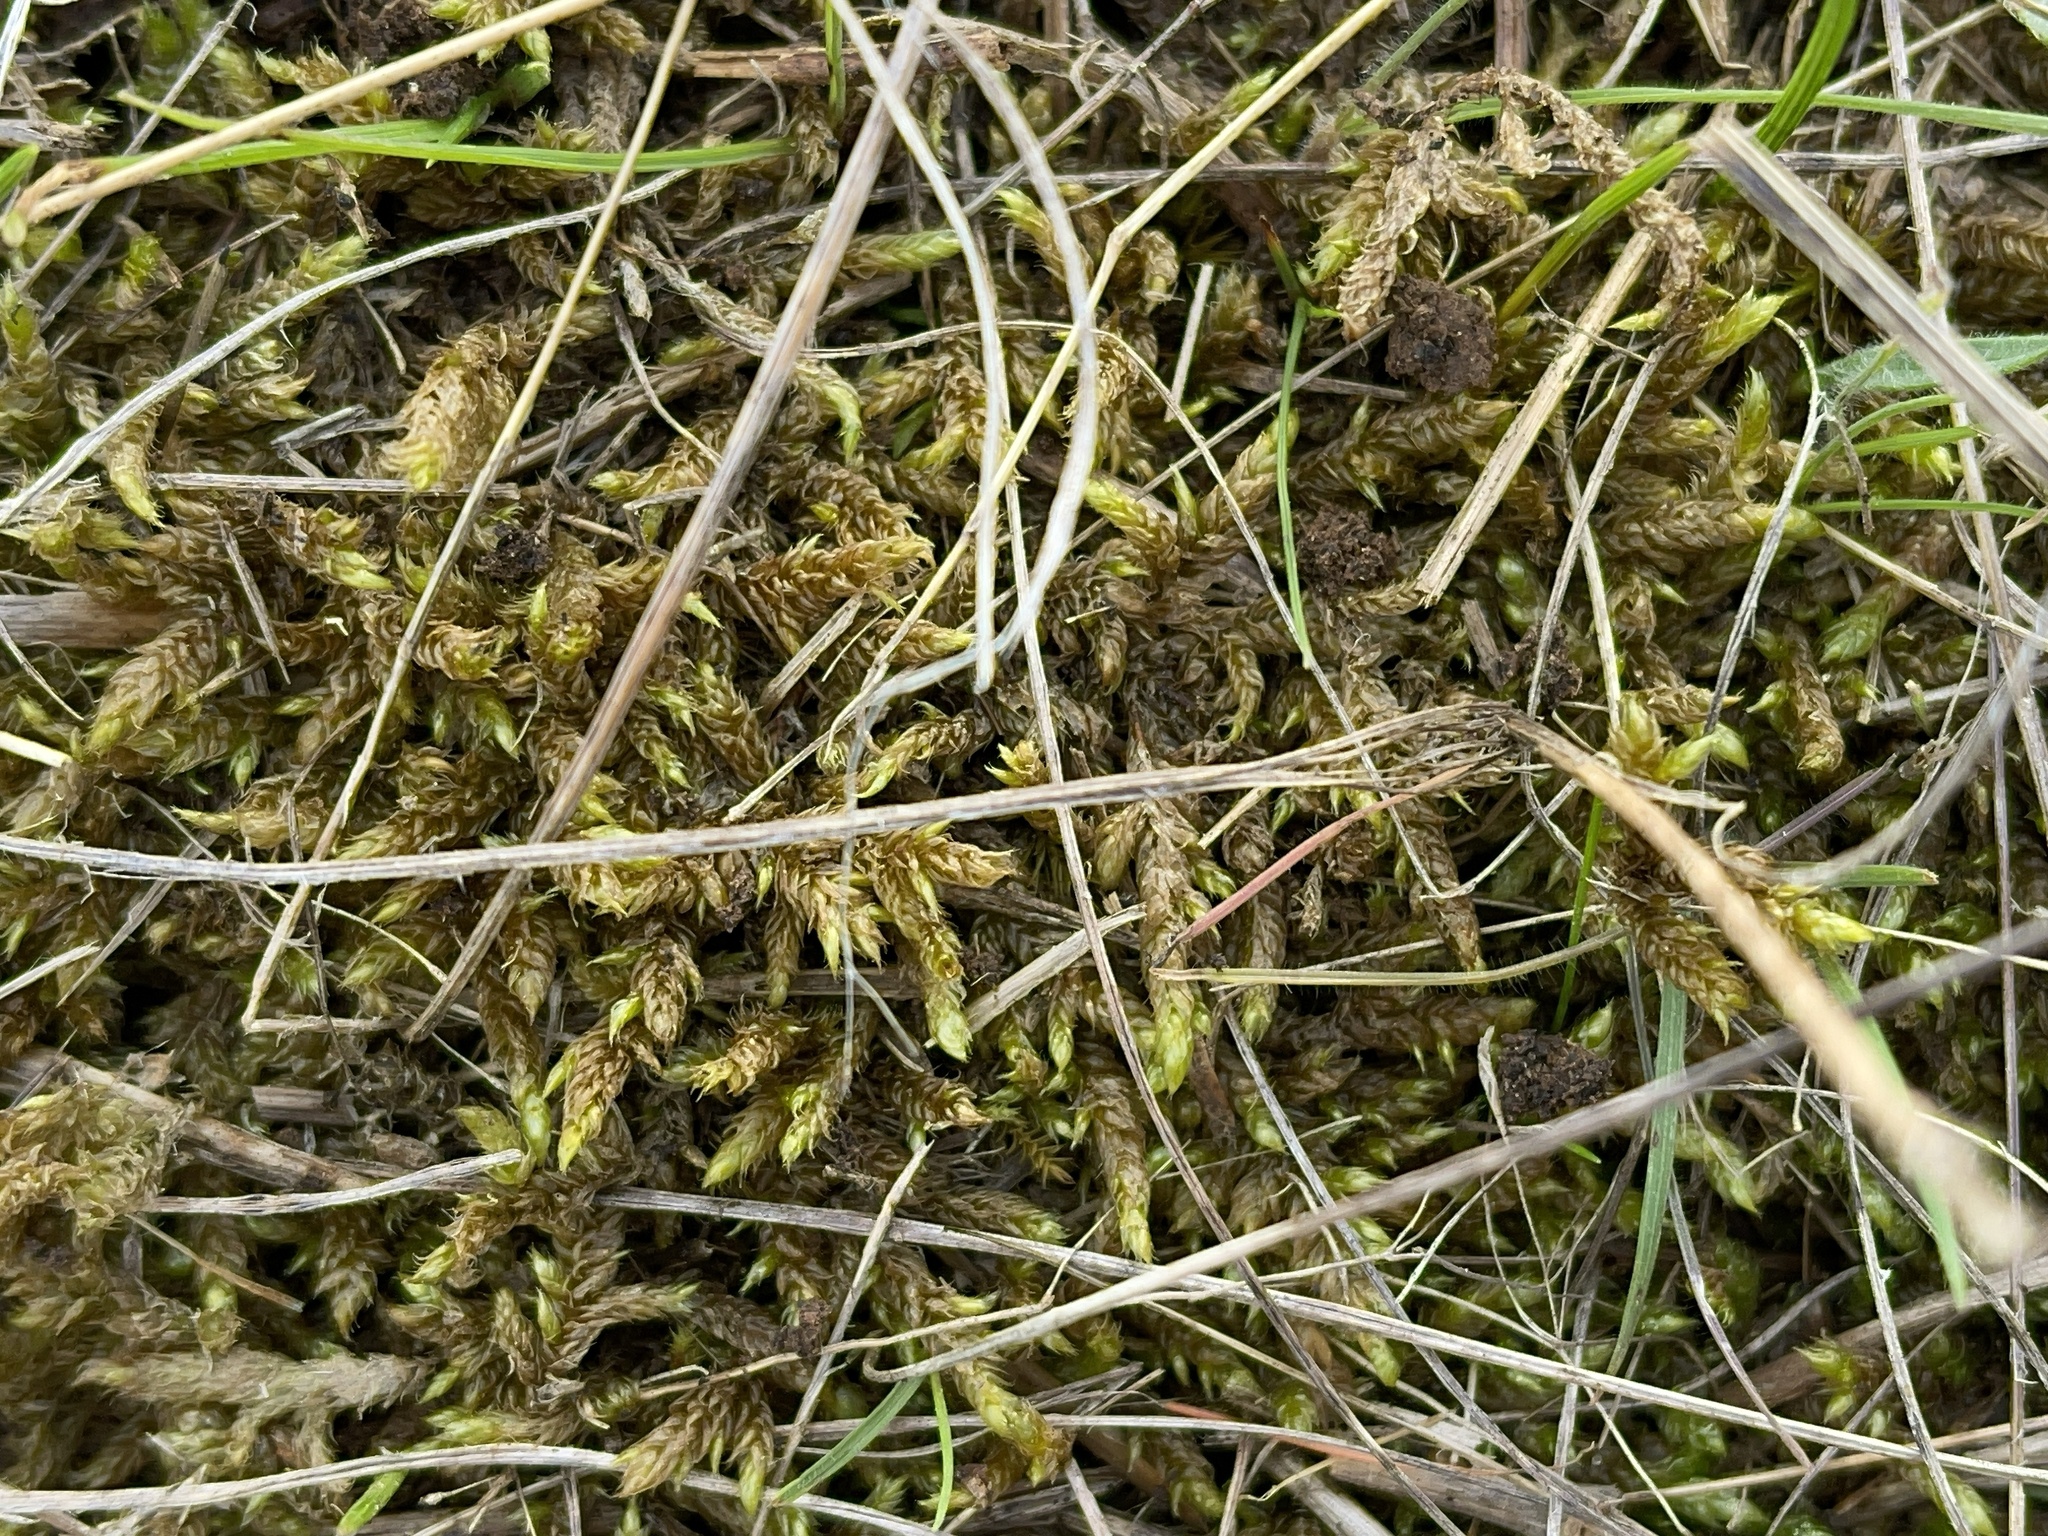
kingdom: Plantae
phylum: Bryophyta
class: Bryopsida
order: Hypnales
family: Hypnaceae
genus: Hypnum
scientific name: Hypnum cupressiforme
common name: Cypress-leaved plait-moss
